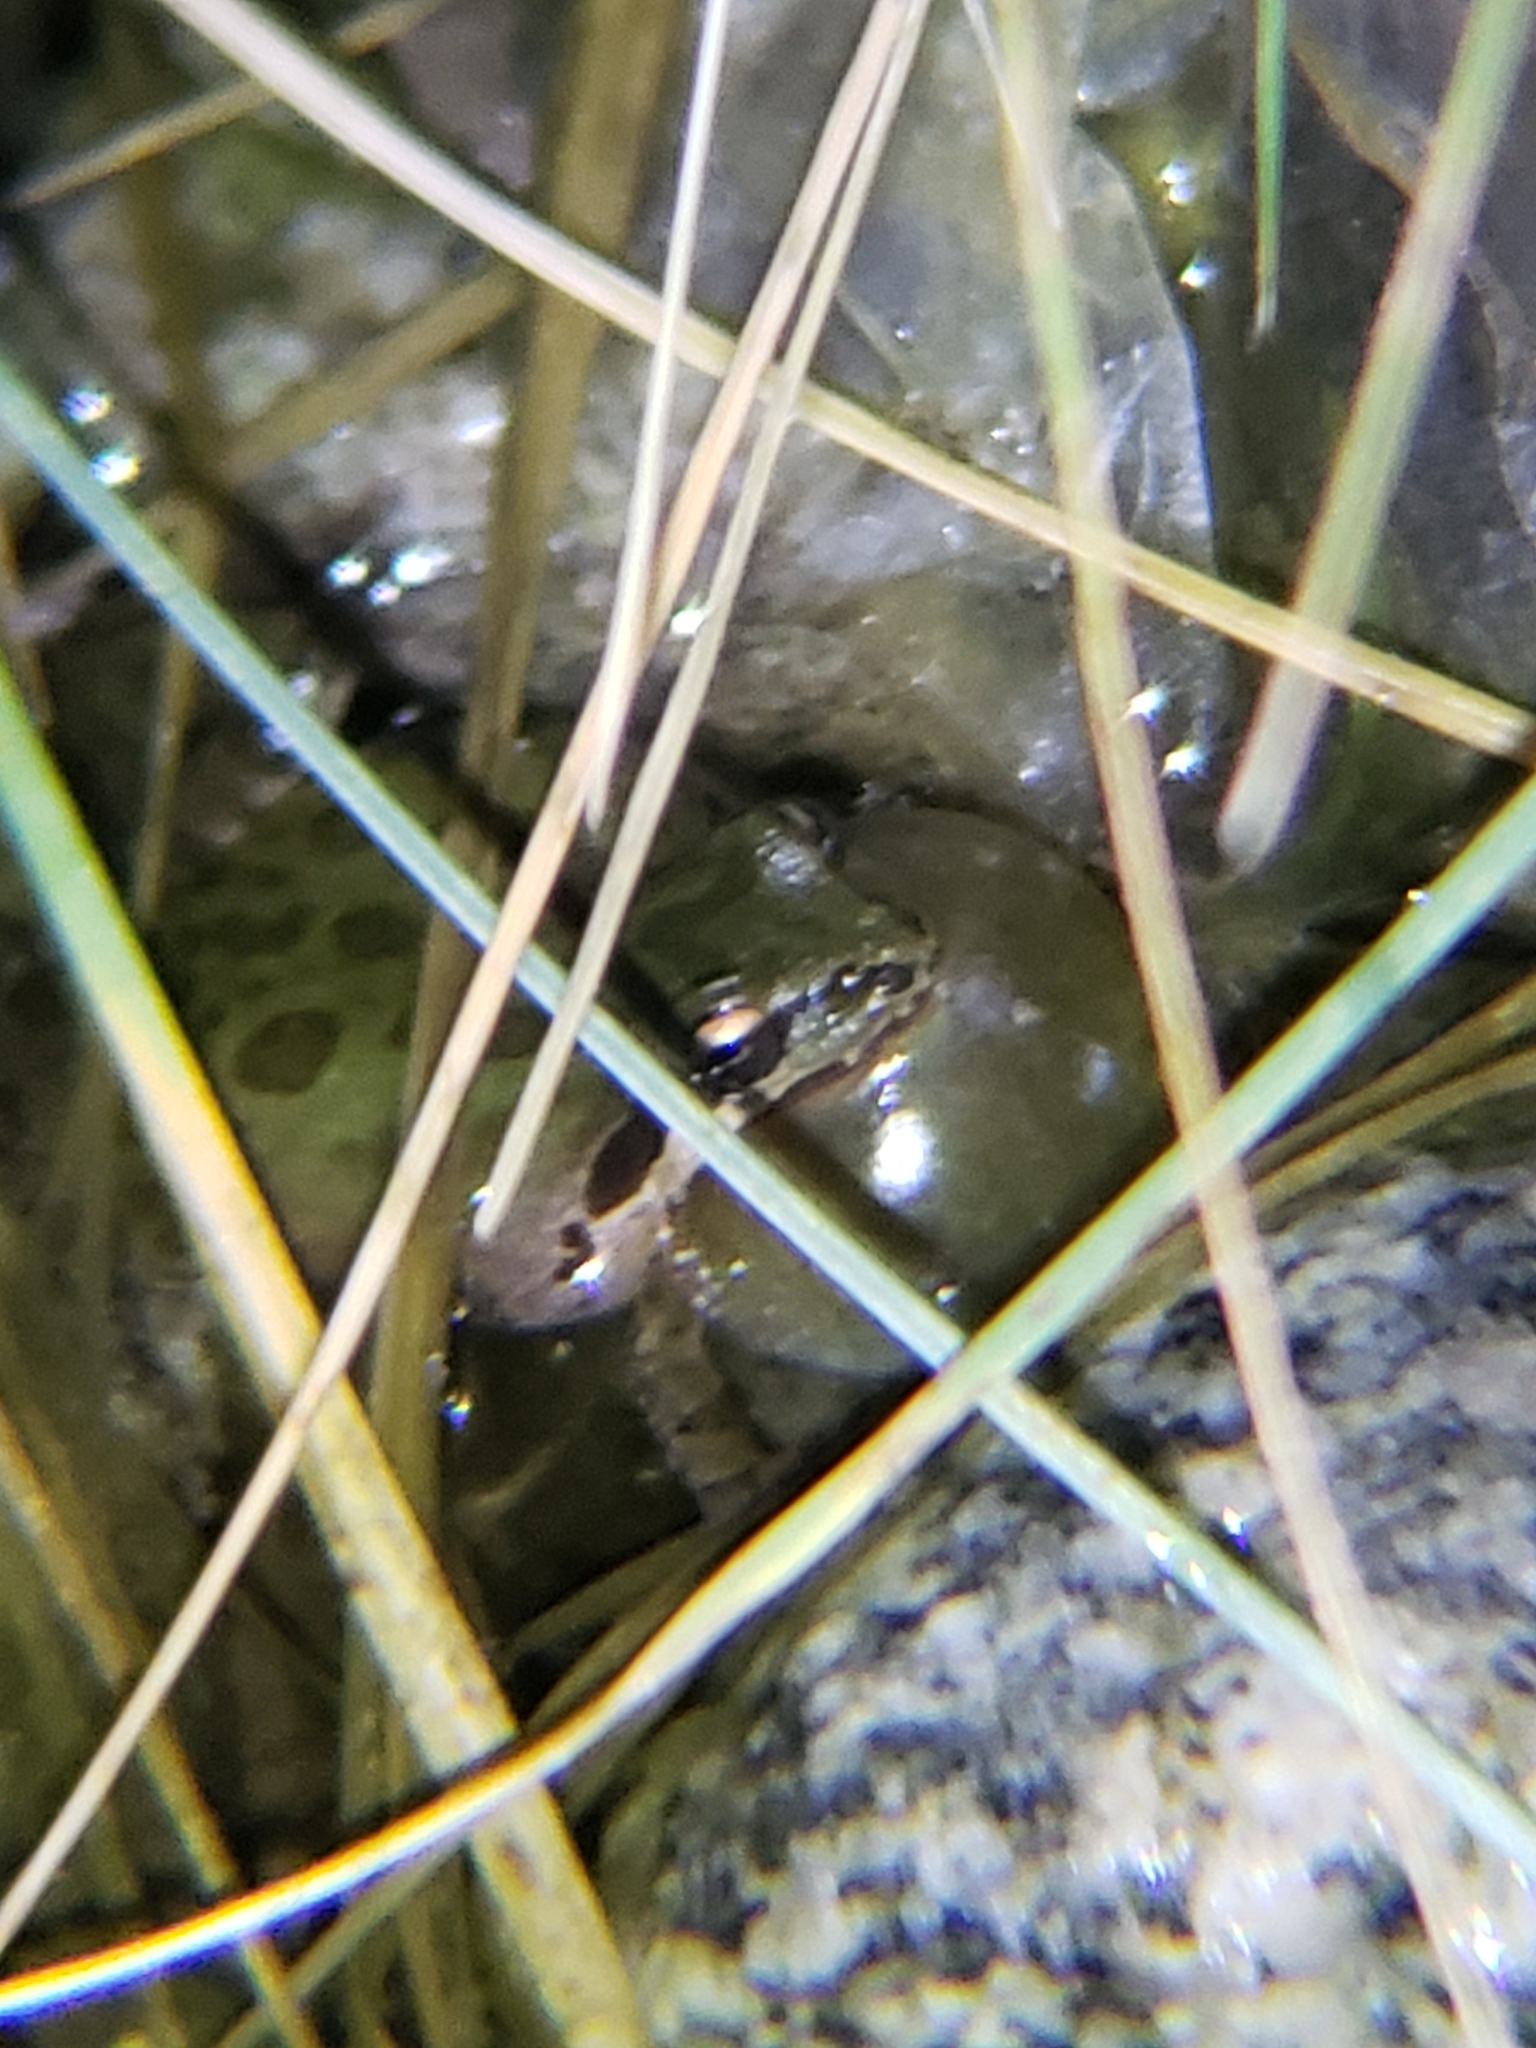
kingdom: Animalia
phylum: Chordata
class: Amphibia
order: Anura
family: Hylidae
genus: Pseudacris
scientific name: Pseudacris regilla
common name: Pacific chorus frog
